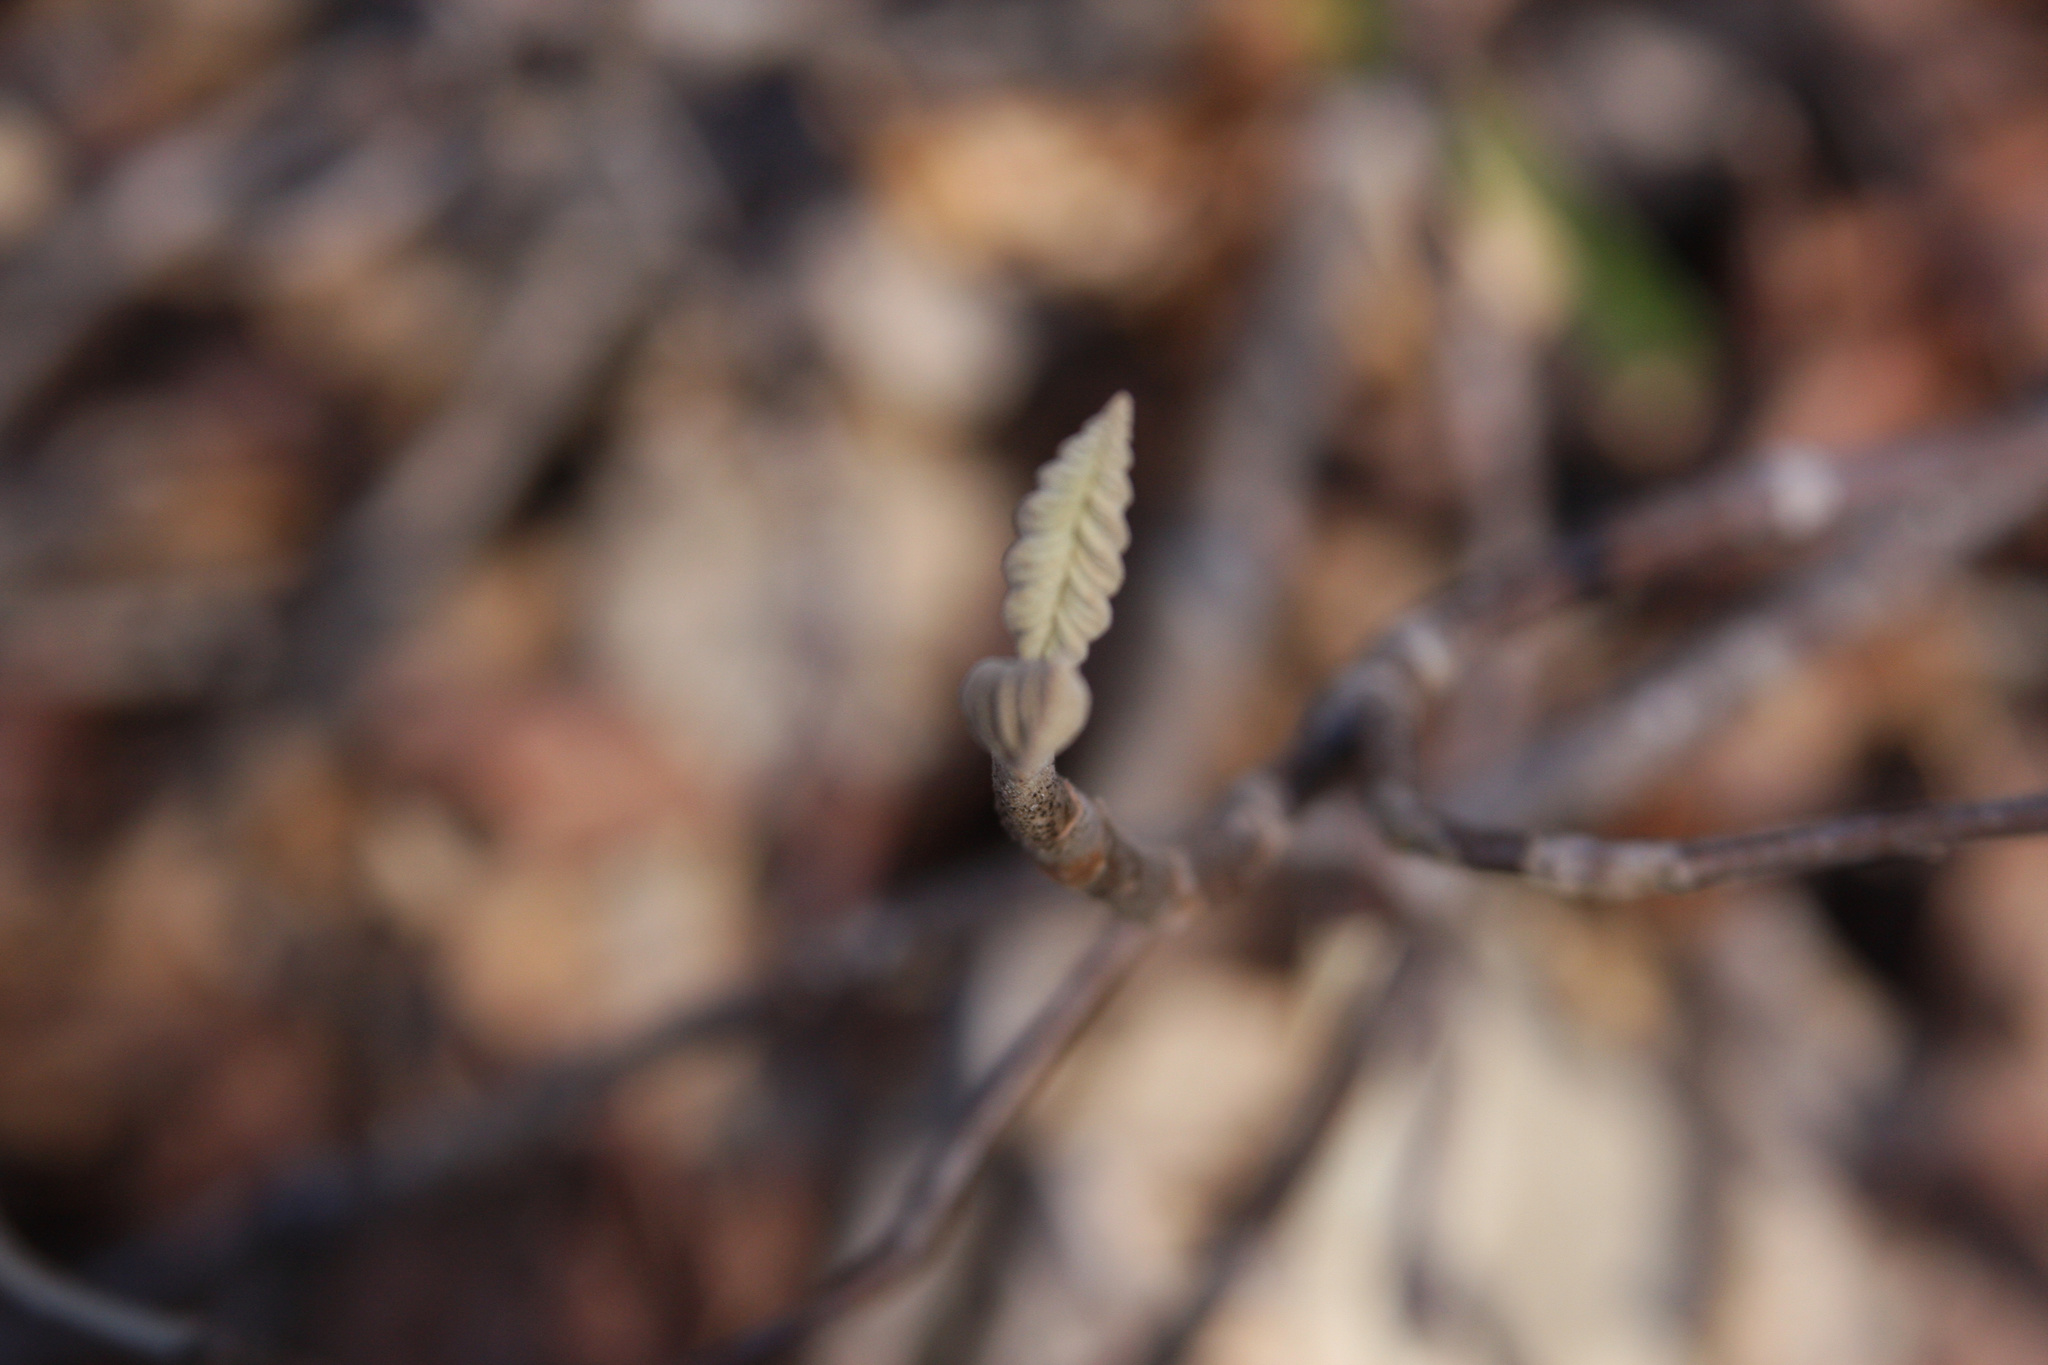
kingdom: Plantae
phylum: Tracheophyta
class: Magnoliopsida
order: Dipsacales
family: Viburnaceae
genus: Viburnum
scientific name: Viburnum lantanoides
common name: Hobblebush
